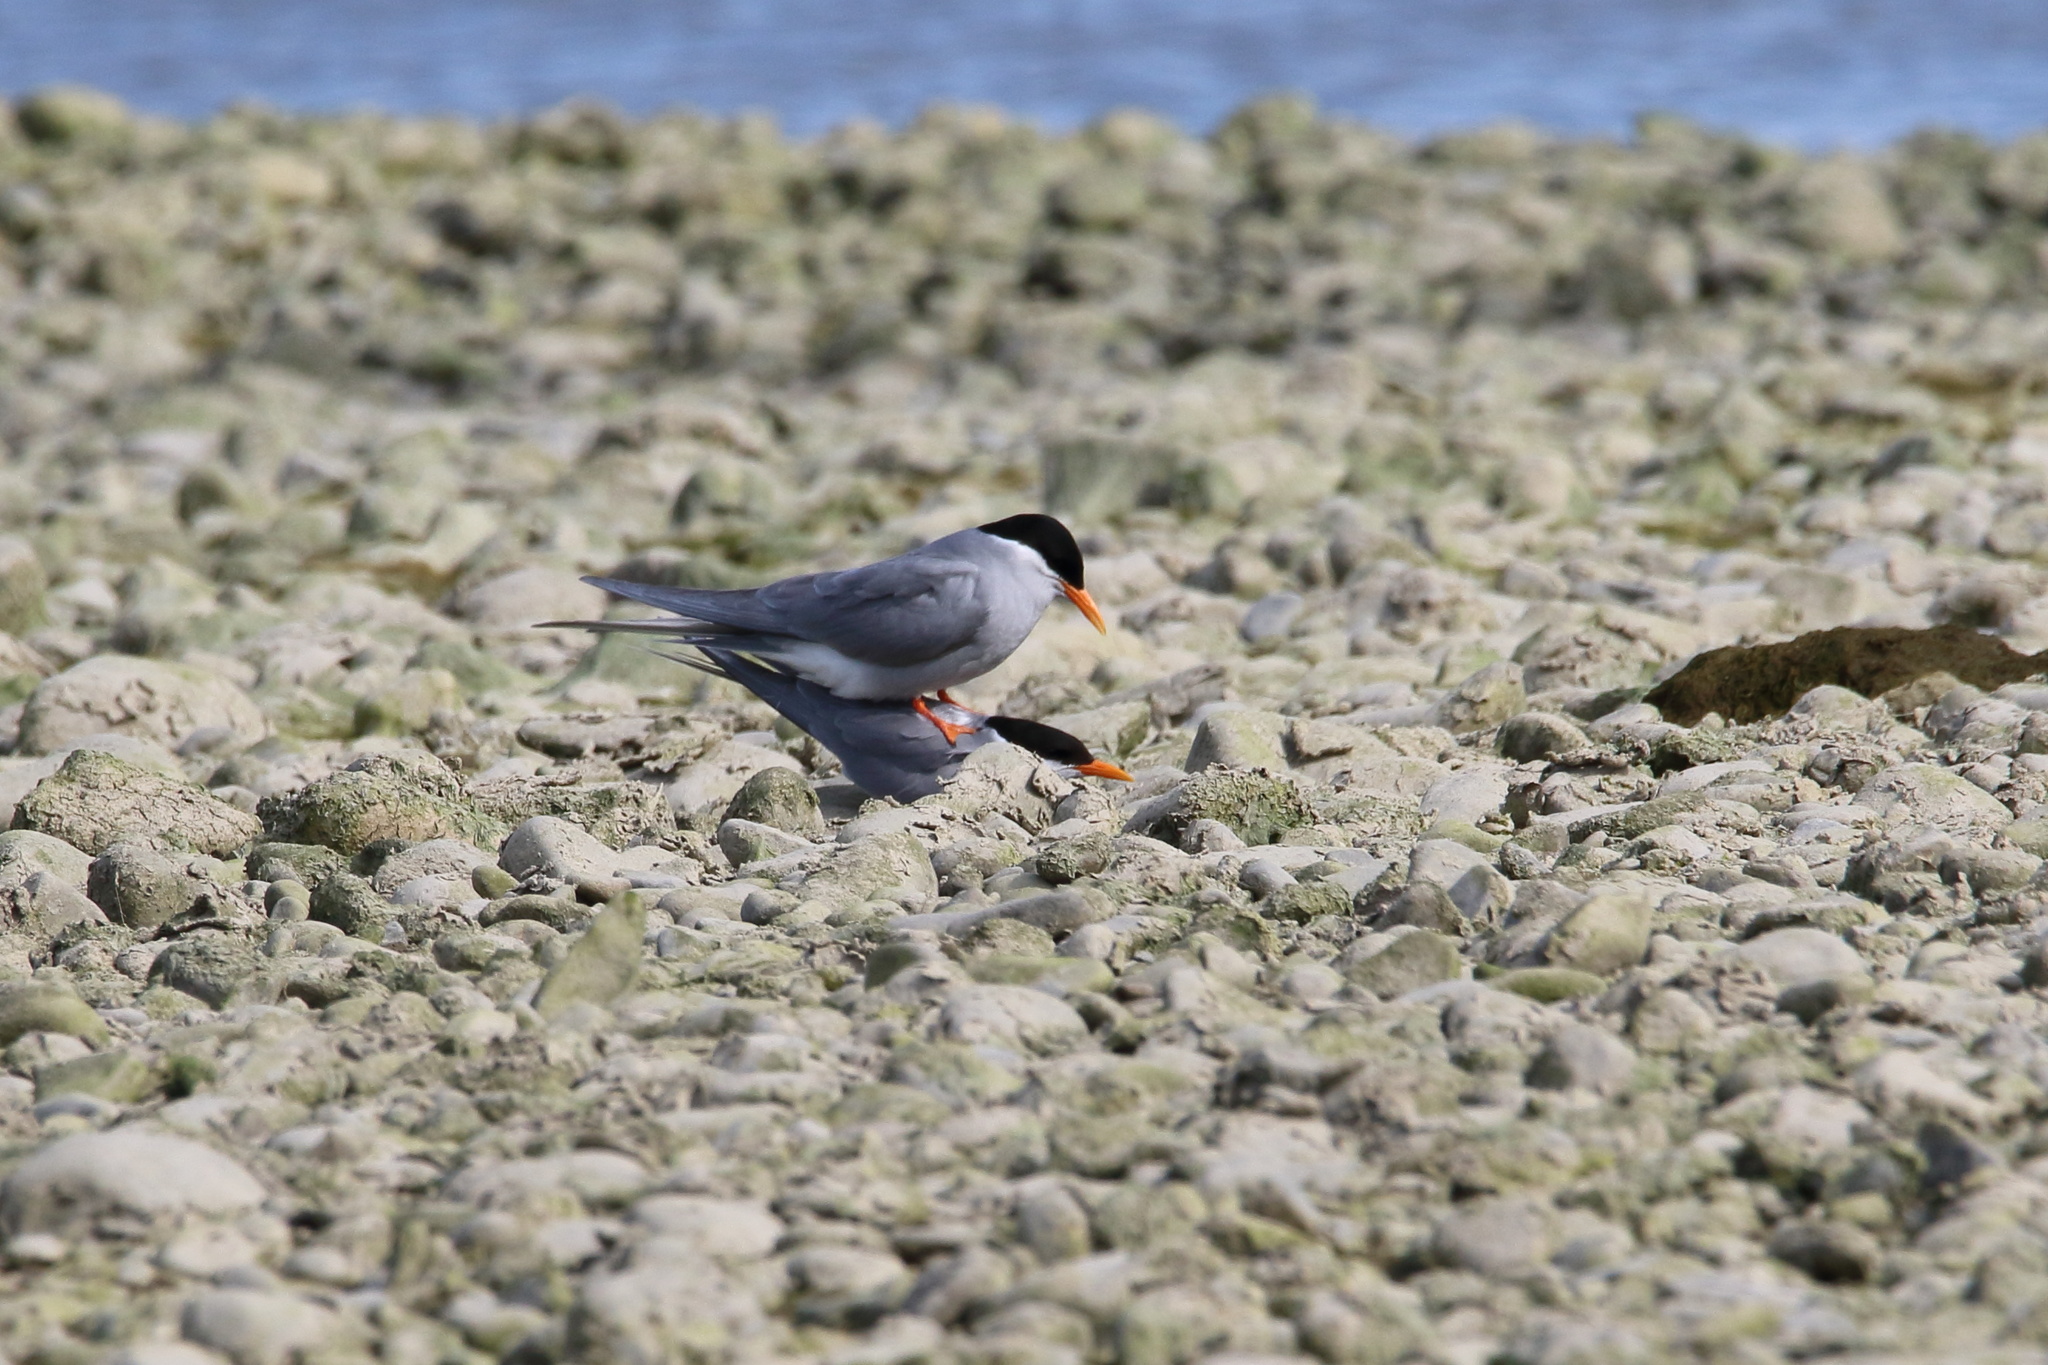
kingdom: Animalia
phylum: Chordata
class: Aves
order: Charadriiformes
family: Laridae
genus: Chlidonias
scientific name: Chlidonias albostriatus
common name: Black-fronted tern
